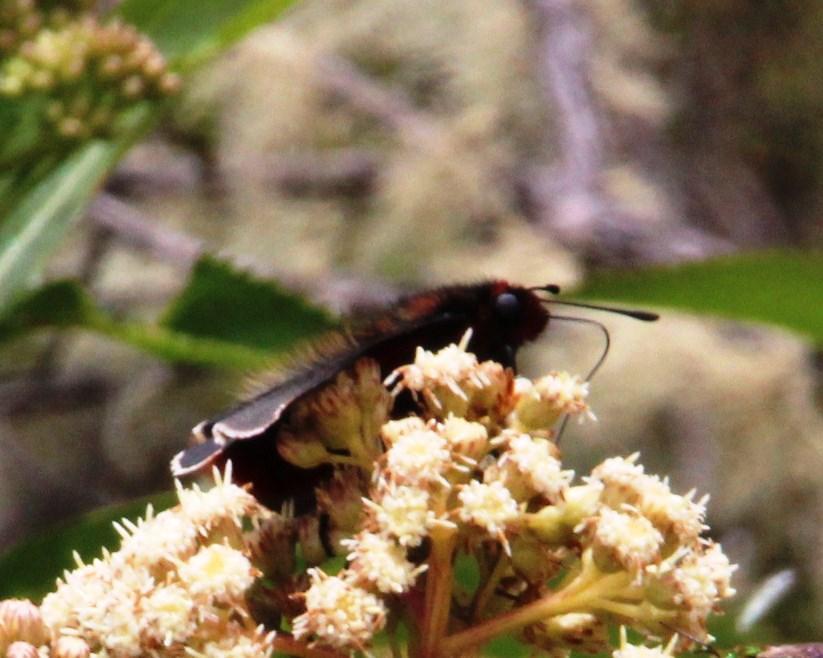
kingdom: Animalia
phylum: Arthropoda
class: Insecta
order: Lepidoptera
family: Hesperiidae
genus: Metardaris
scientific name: Metardaris cosinga
